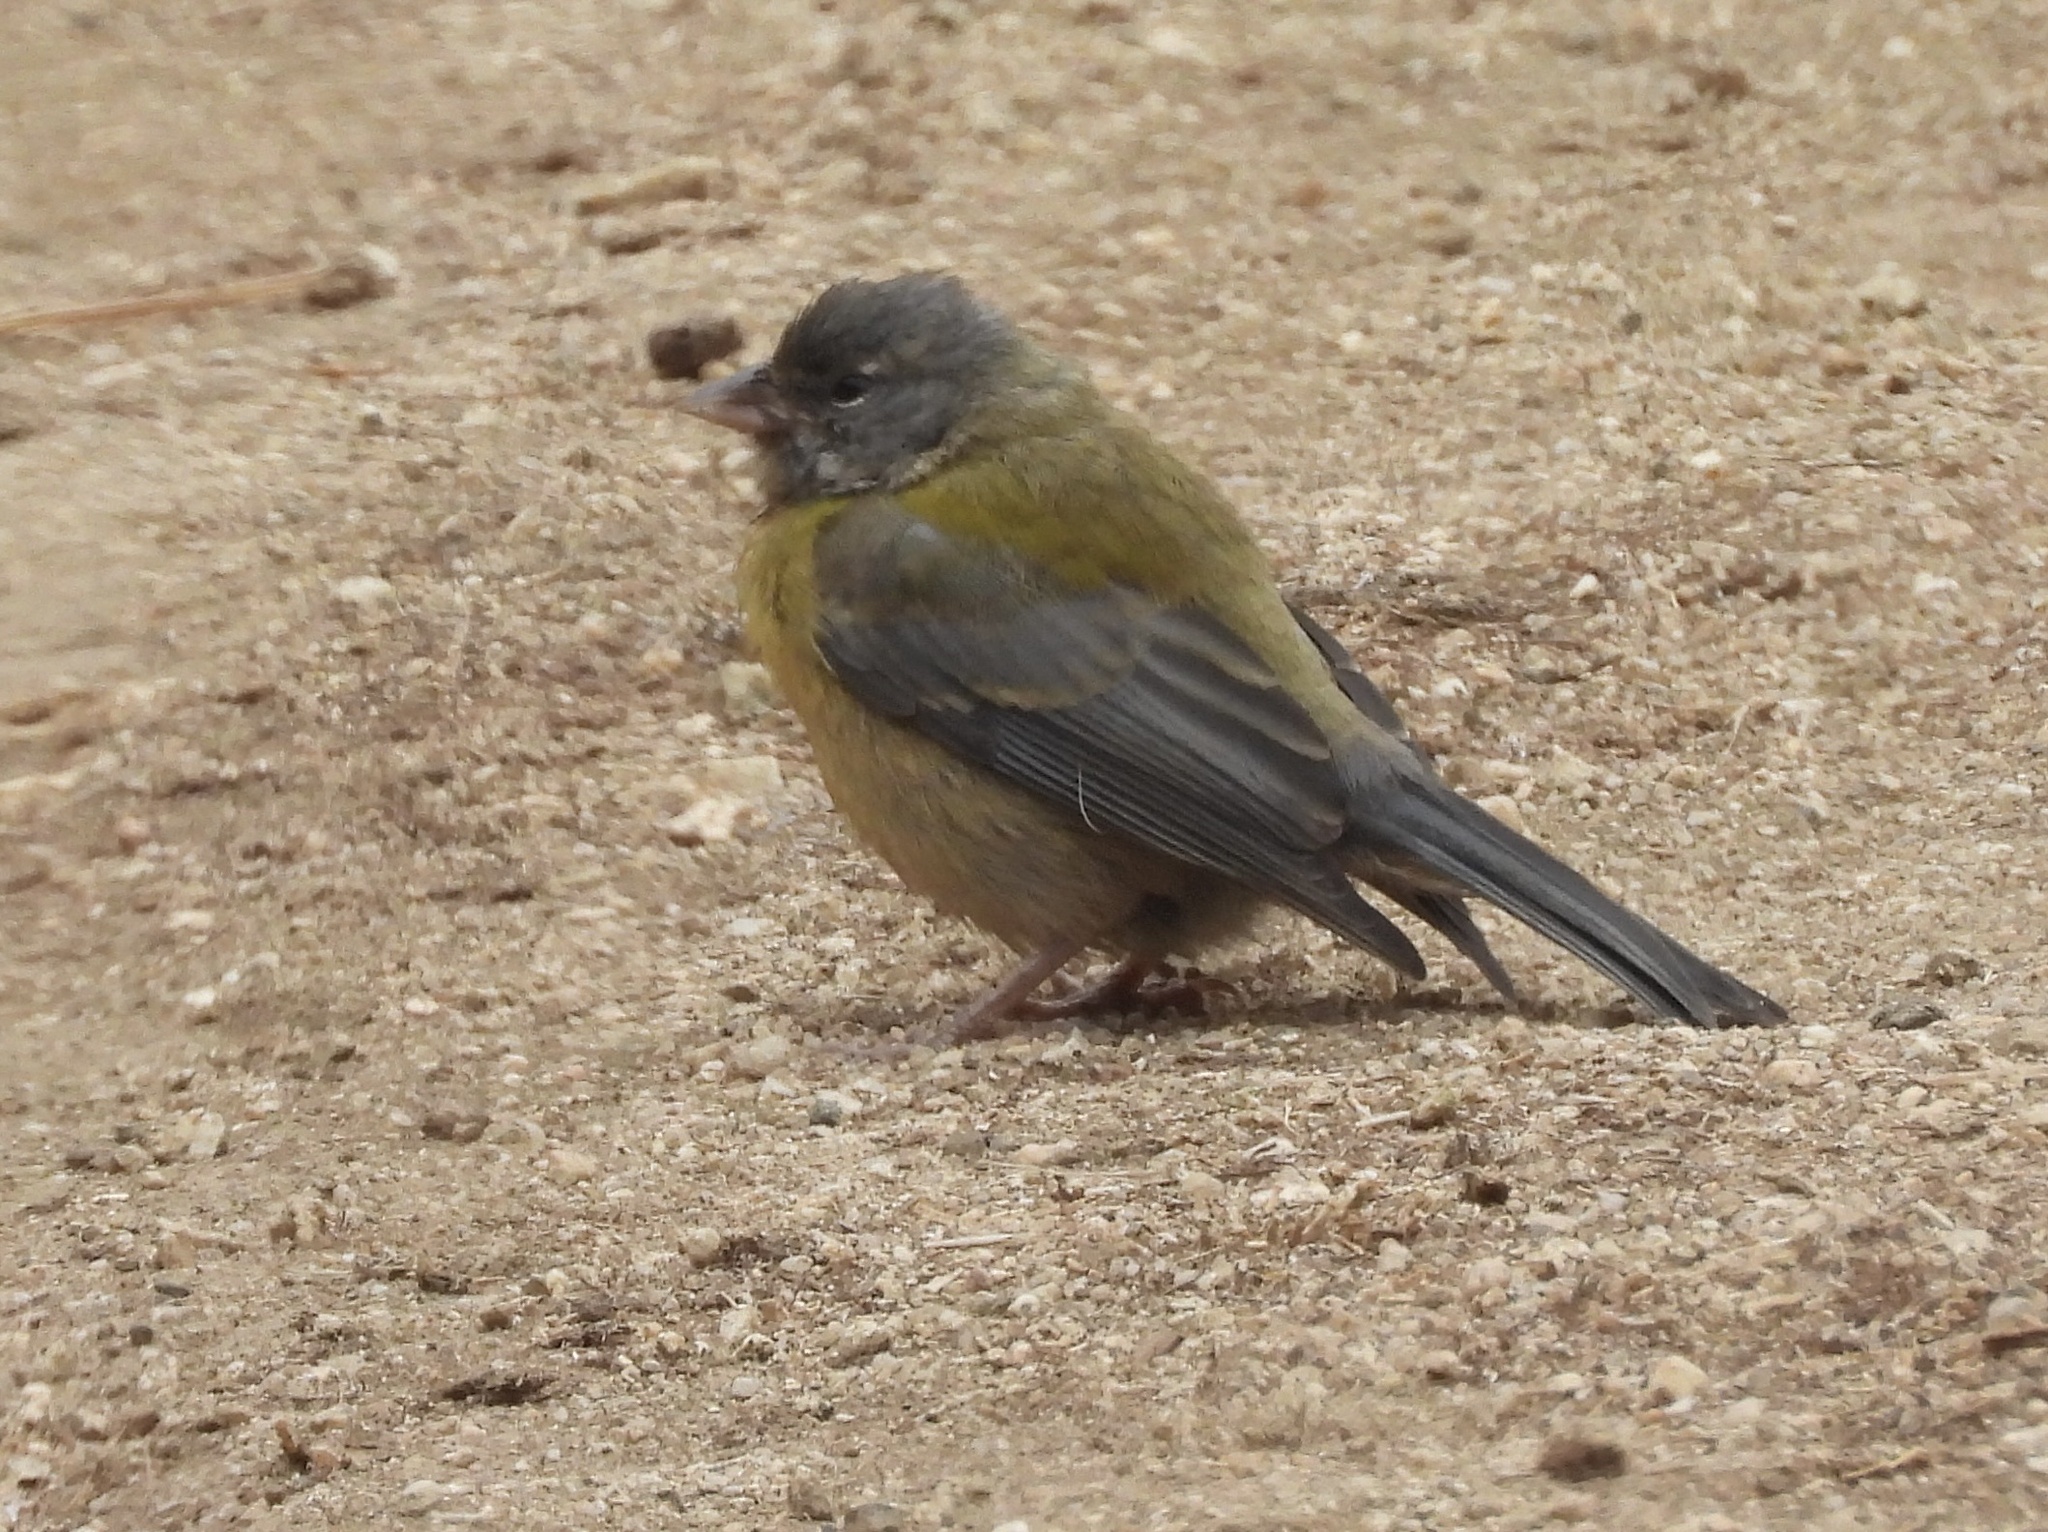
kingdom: Animalia
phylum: Chordata
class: Aves
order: Passeriformes
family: Thraupidae
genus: Phrygilus
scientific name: Phrygilus gayi
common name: Grey-hooded sierra finch
